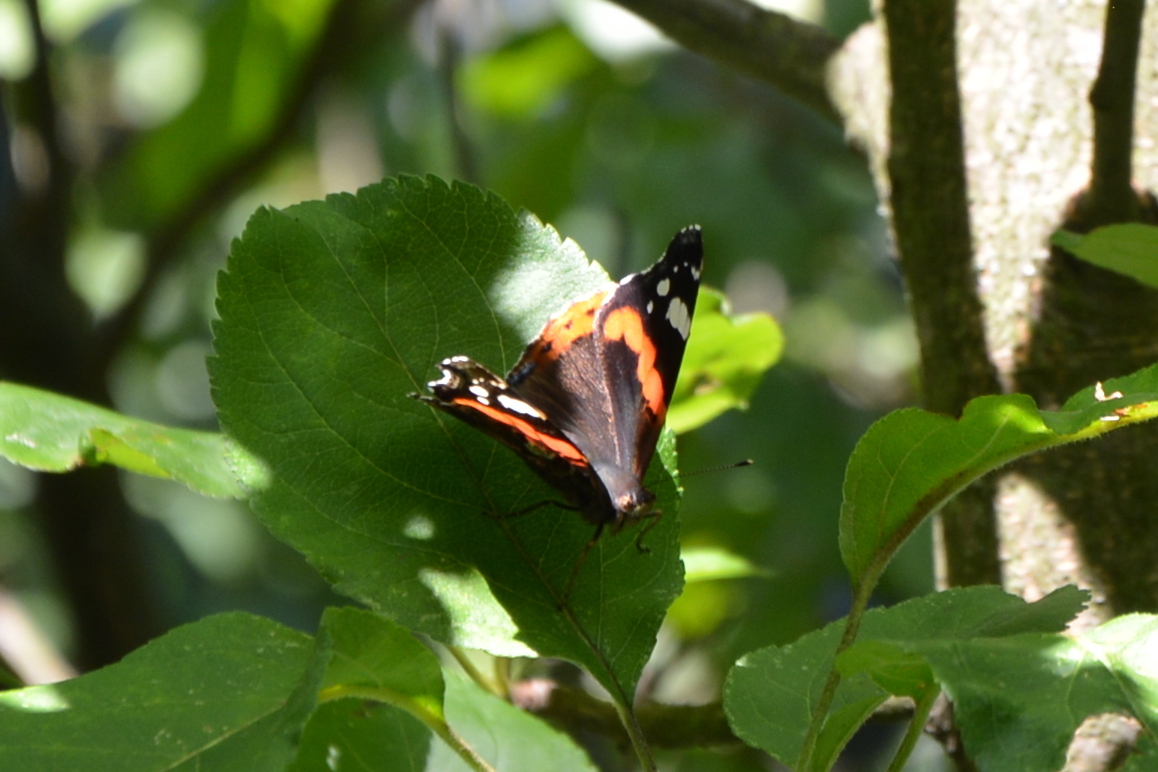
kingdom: Animalia
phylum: Arthropoda
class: Insecta
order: Lepidoptera
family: Nymphalidae
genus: Vanessa
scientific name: Vanessa atalanta
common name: Red admiral
